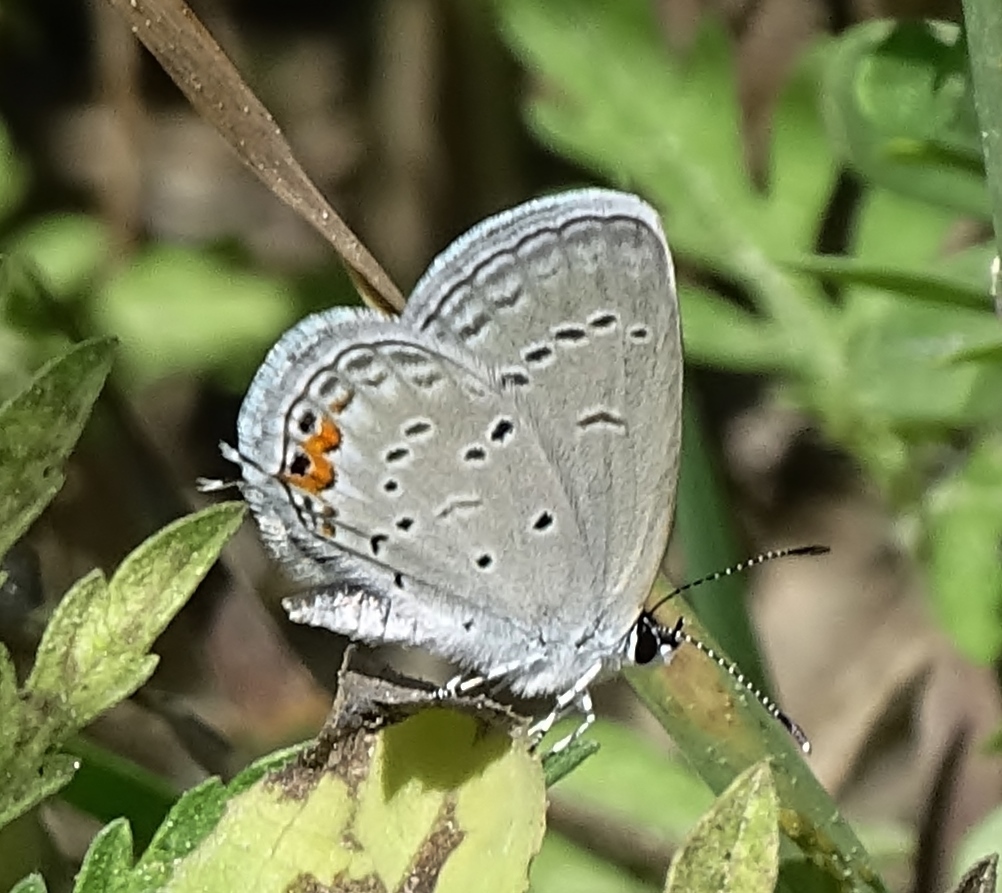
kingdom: Animalia
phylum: Arthropoda
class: Insecta
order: Lepidoptera
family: Lycaenidae
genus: Elkalyce
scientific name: Elkalyce comyntas
